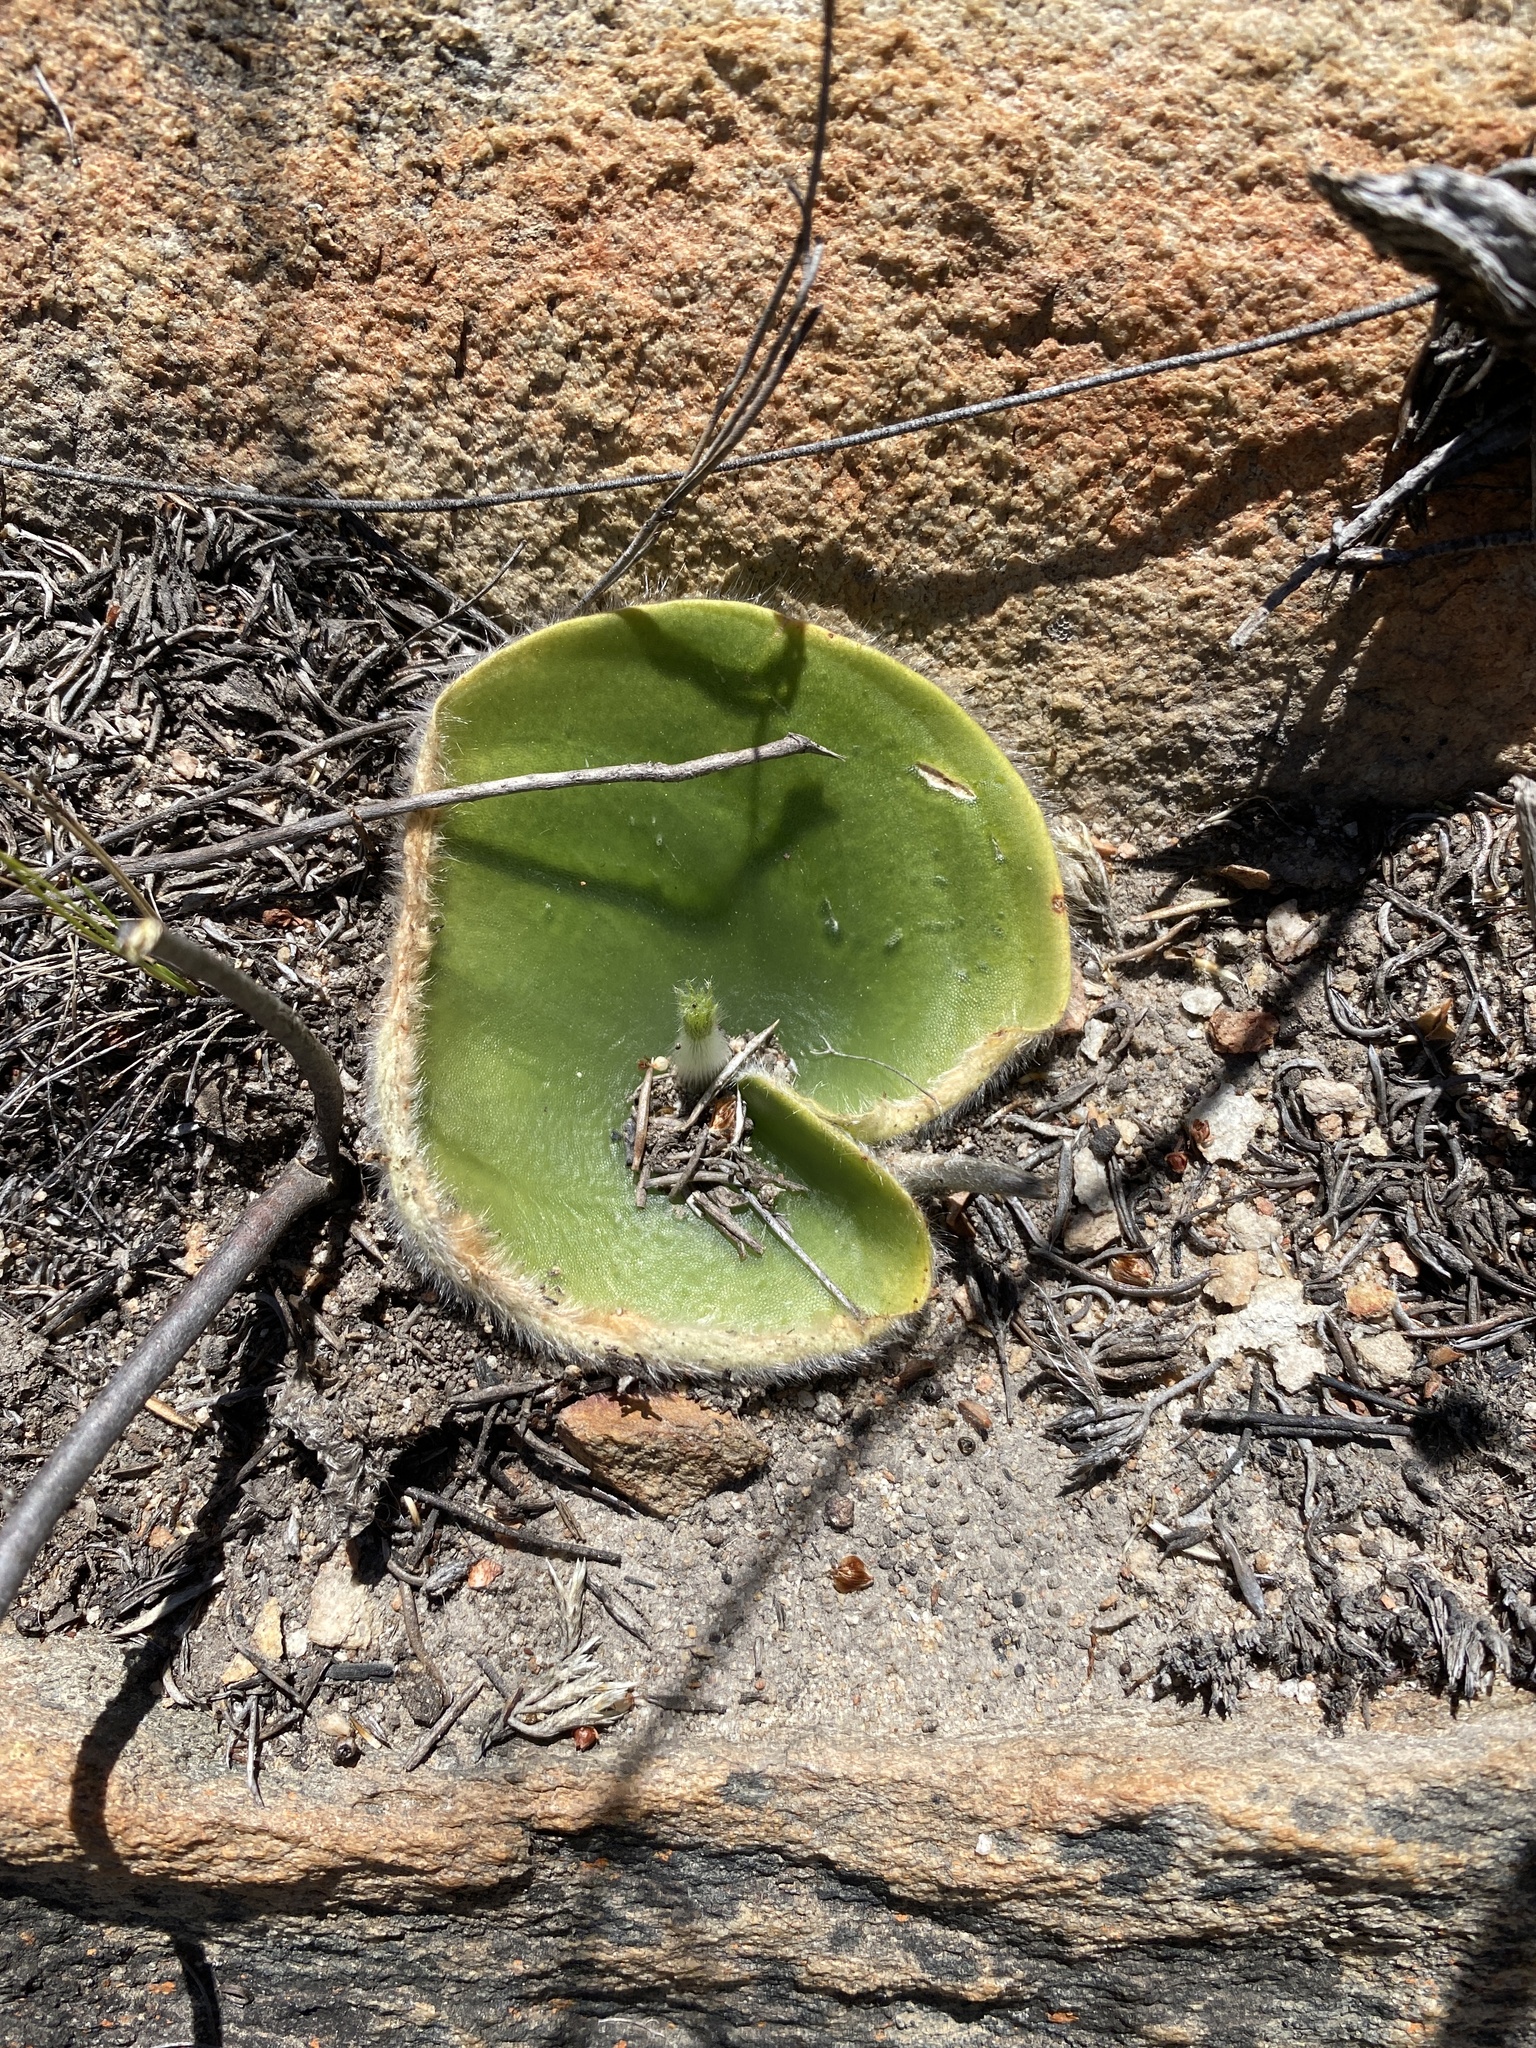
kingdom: Plantae
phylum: Tracheophyta
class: Liliopsida
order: Asparagales
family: Orchidaceae
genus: Holothrix
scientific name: Holothrix pilosa
